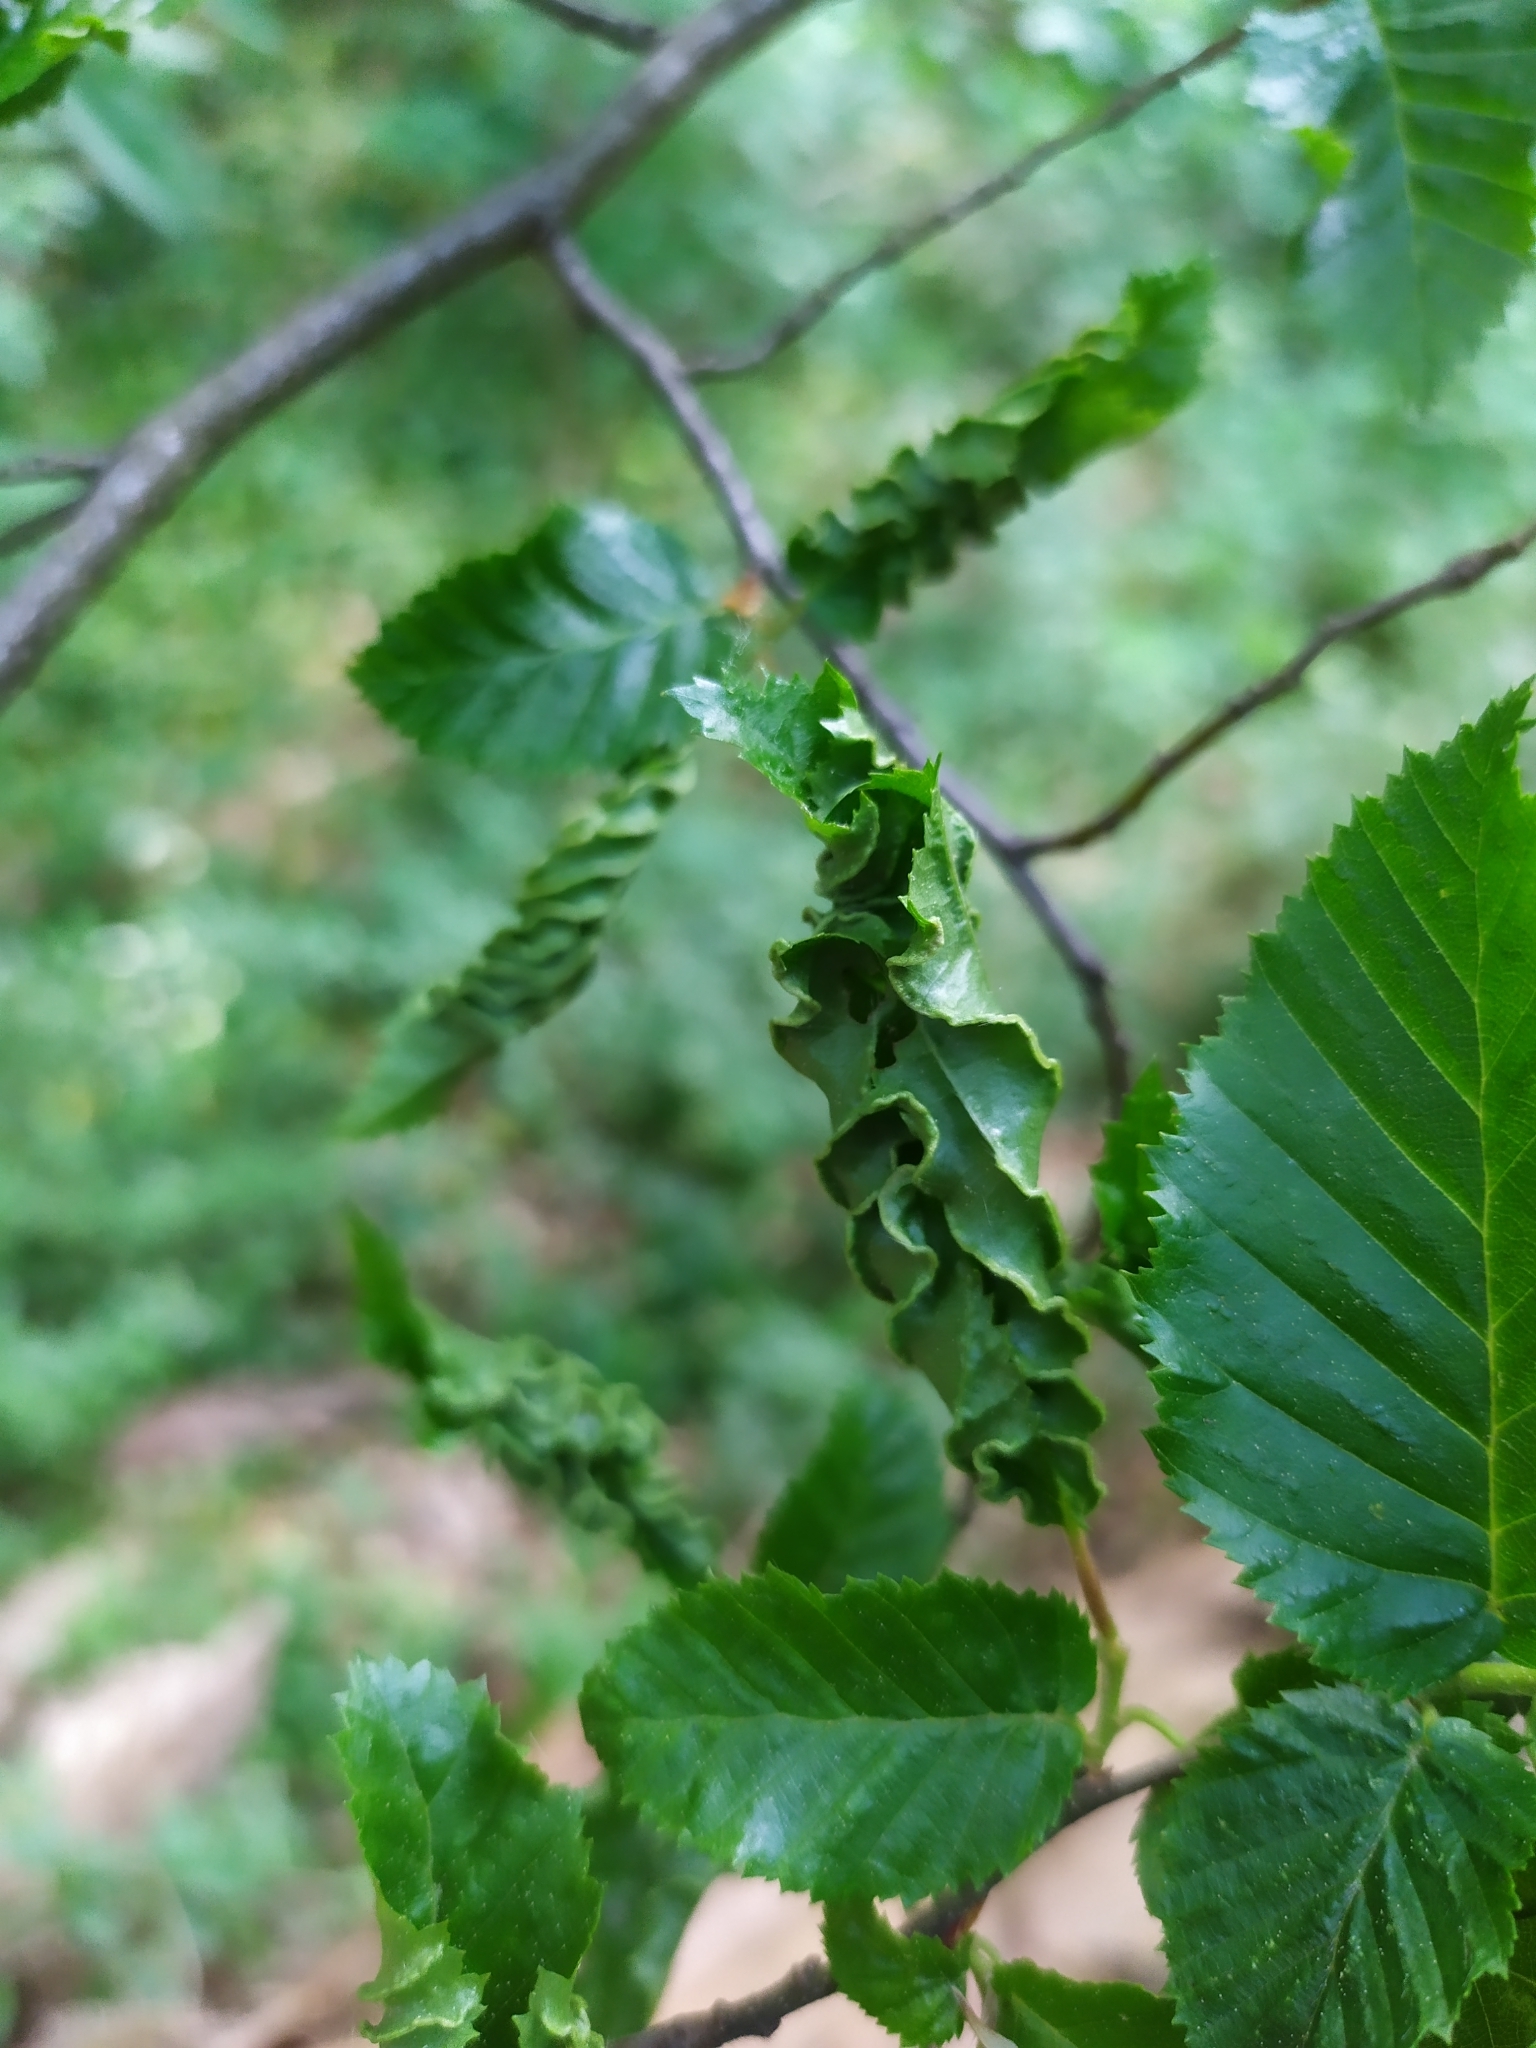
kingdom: Animalia
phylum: Arthropoda
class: Arachnida
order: Trombidiformes
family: Eriophyidae
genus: Aculops
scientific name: Aculops macrotrichus
